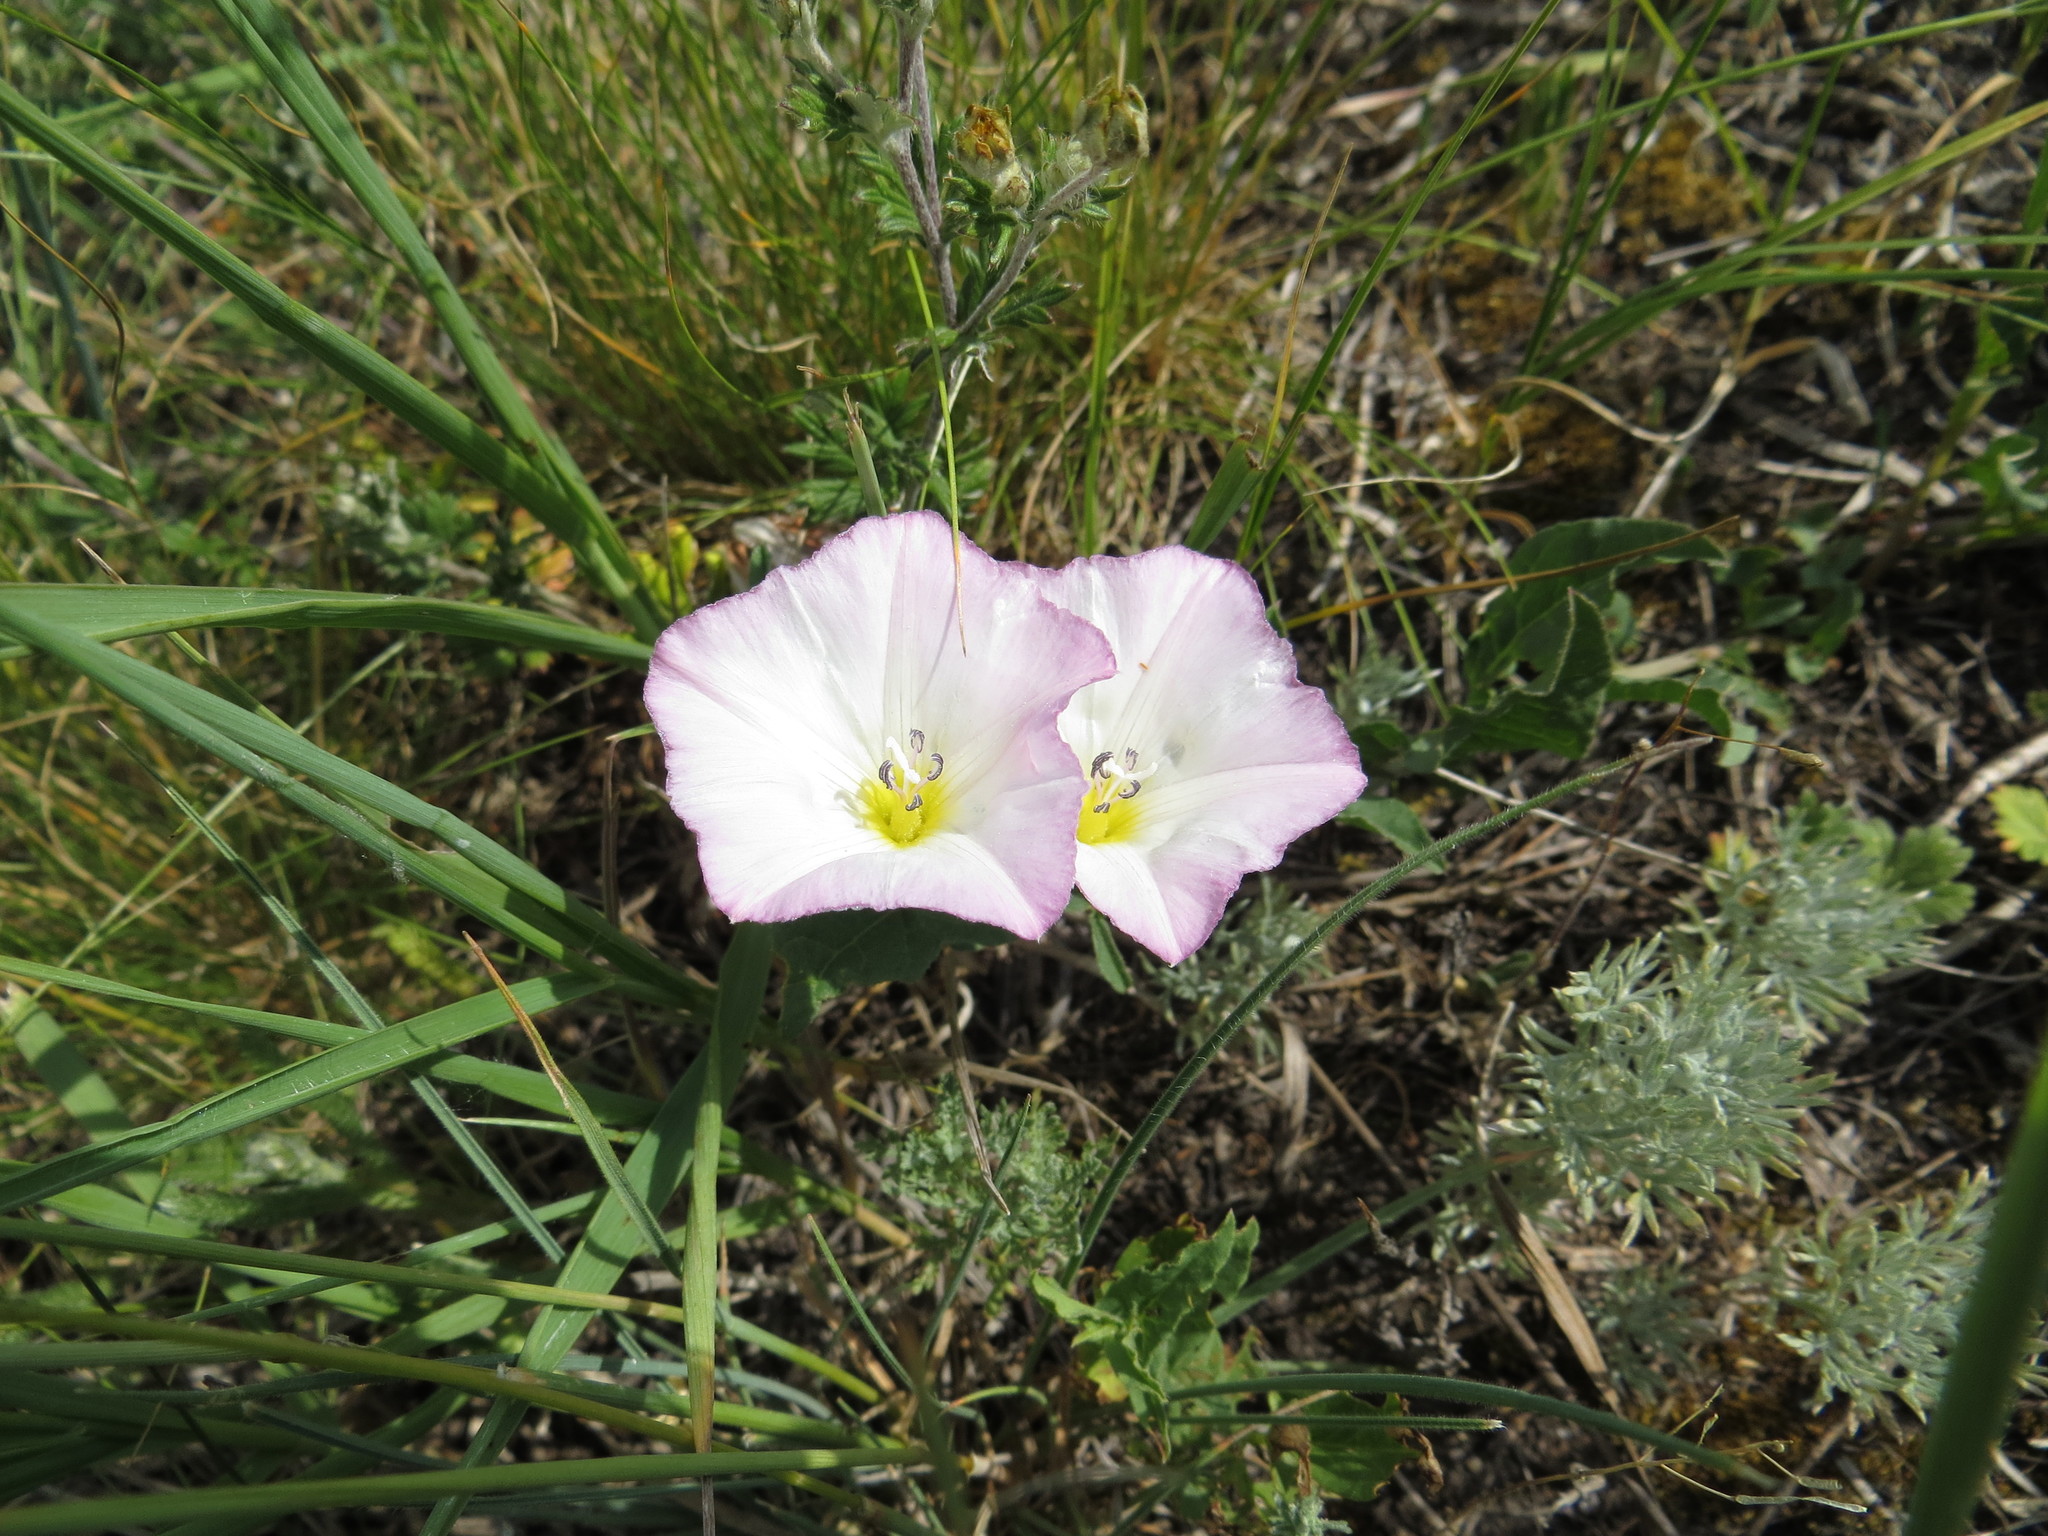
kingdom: Plantae
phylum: Tracheophyta
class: Magnoliopsida
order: Solanales
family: Convolvulaceae
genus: Convolvulus
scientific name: Convolvulus arvensis
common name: Field bindweed
